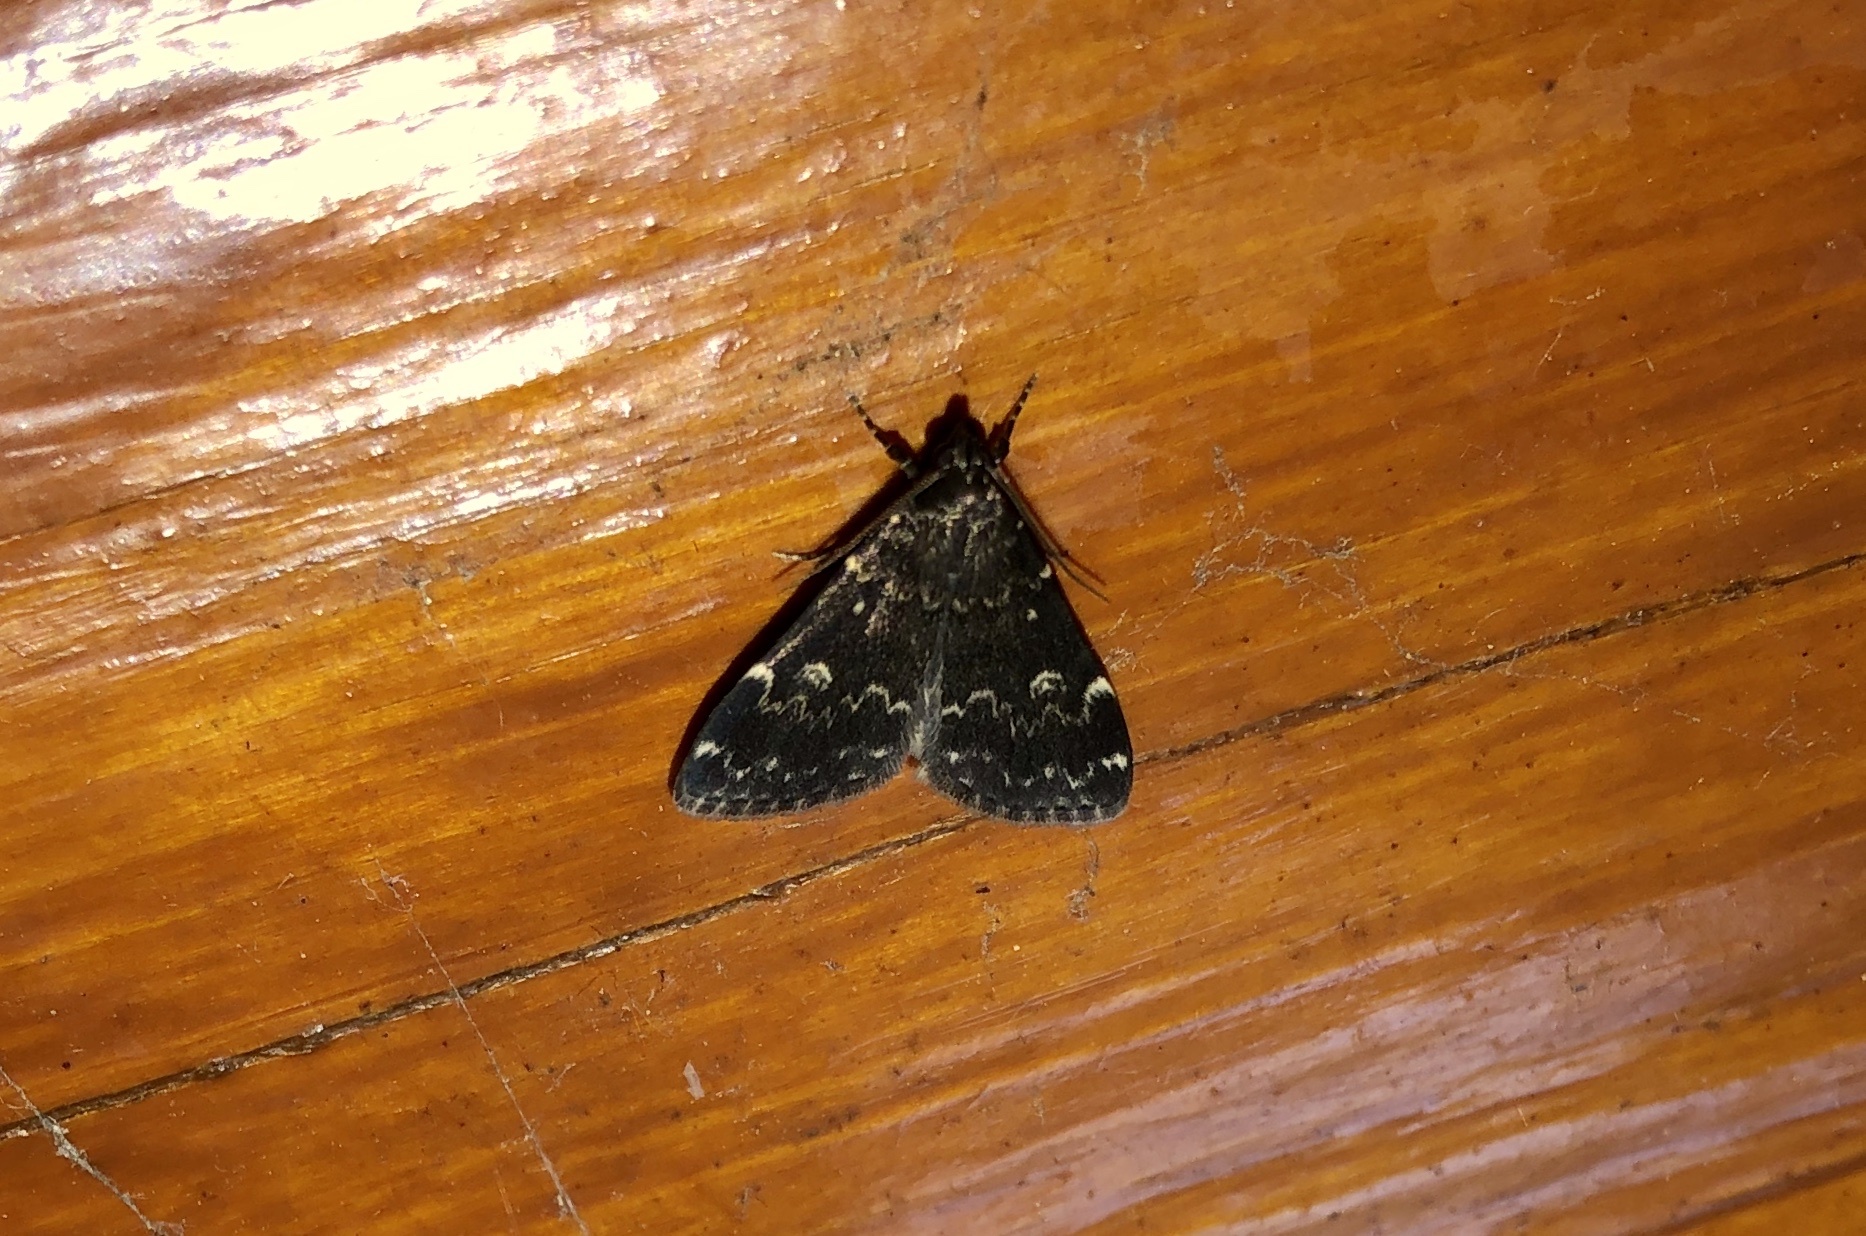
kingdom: Animalia
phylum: Arthropoda
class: Insecta
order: Lepidoptera
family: Erebidae
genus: Idia
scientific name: Idia lubricalis
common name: Twin-striped tabby
